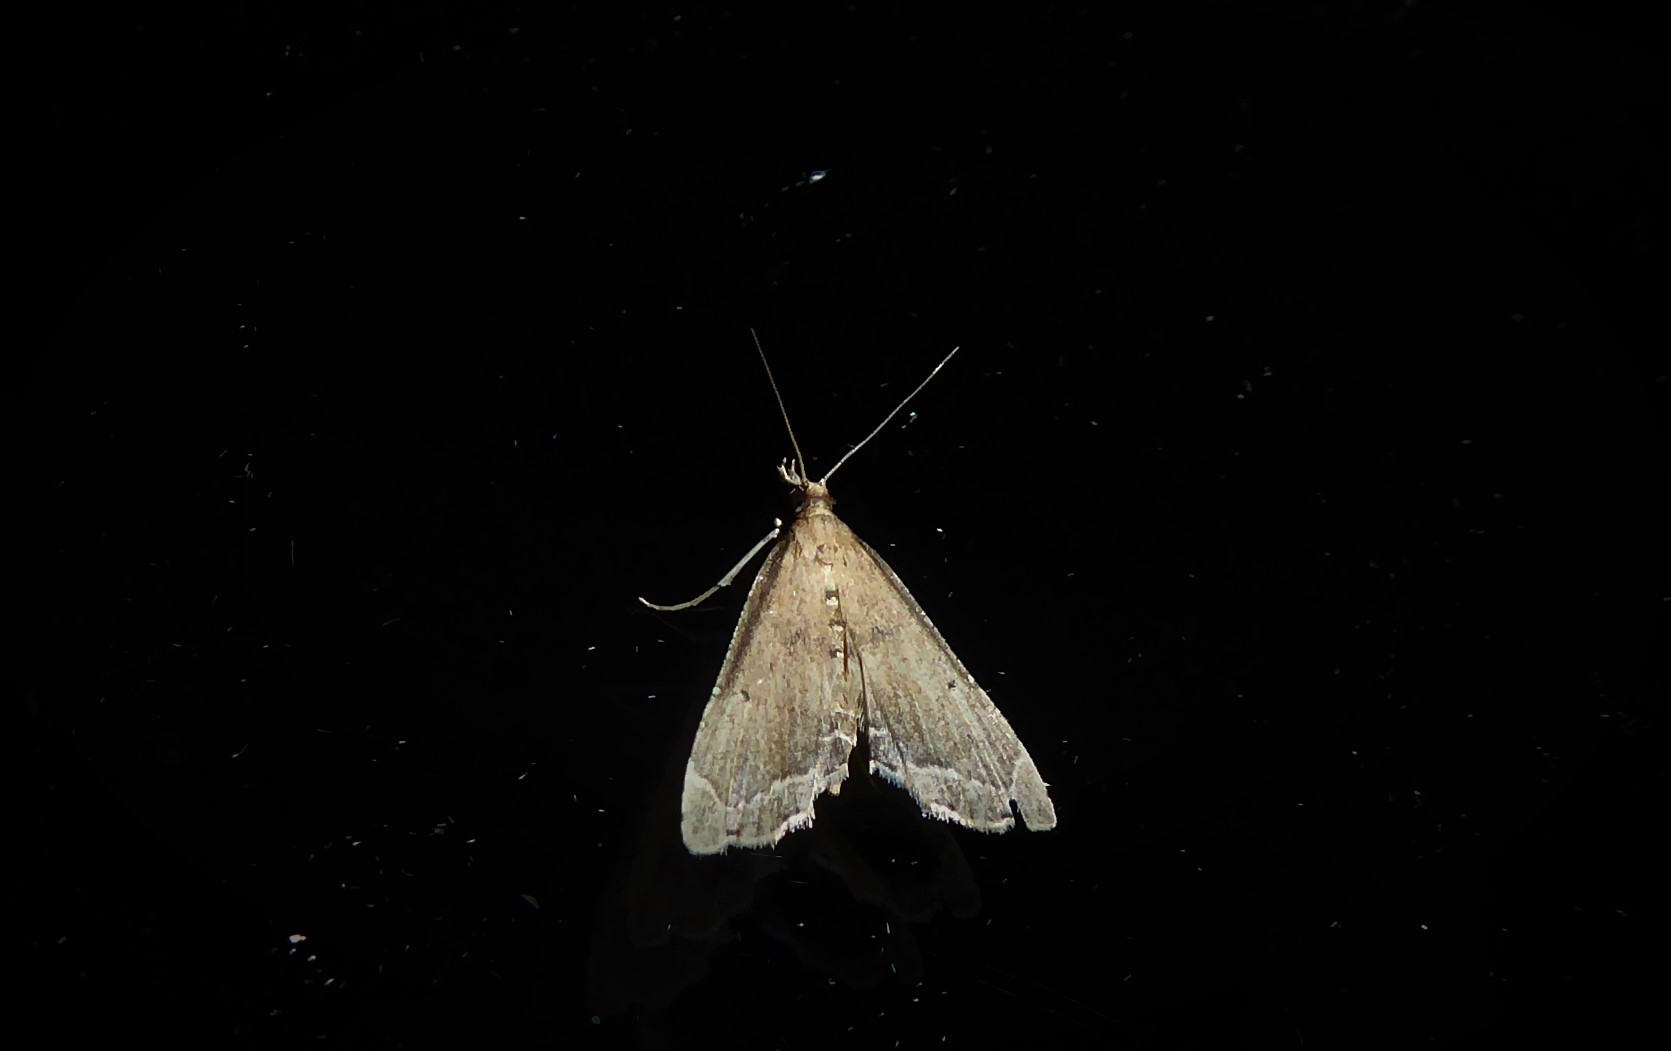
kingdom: Animalia
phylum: Arthropoda
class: Insecta
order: Lepidoptera
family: Crambidae
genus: Diplopseustis
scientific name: Diplopseustis perieresalis
